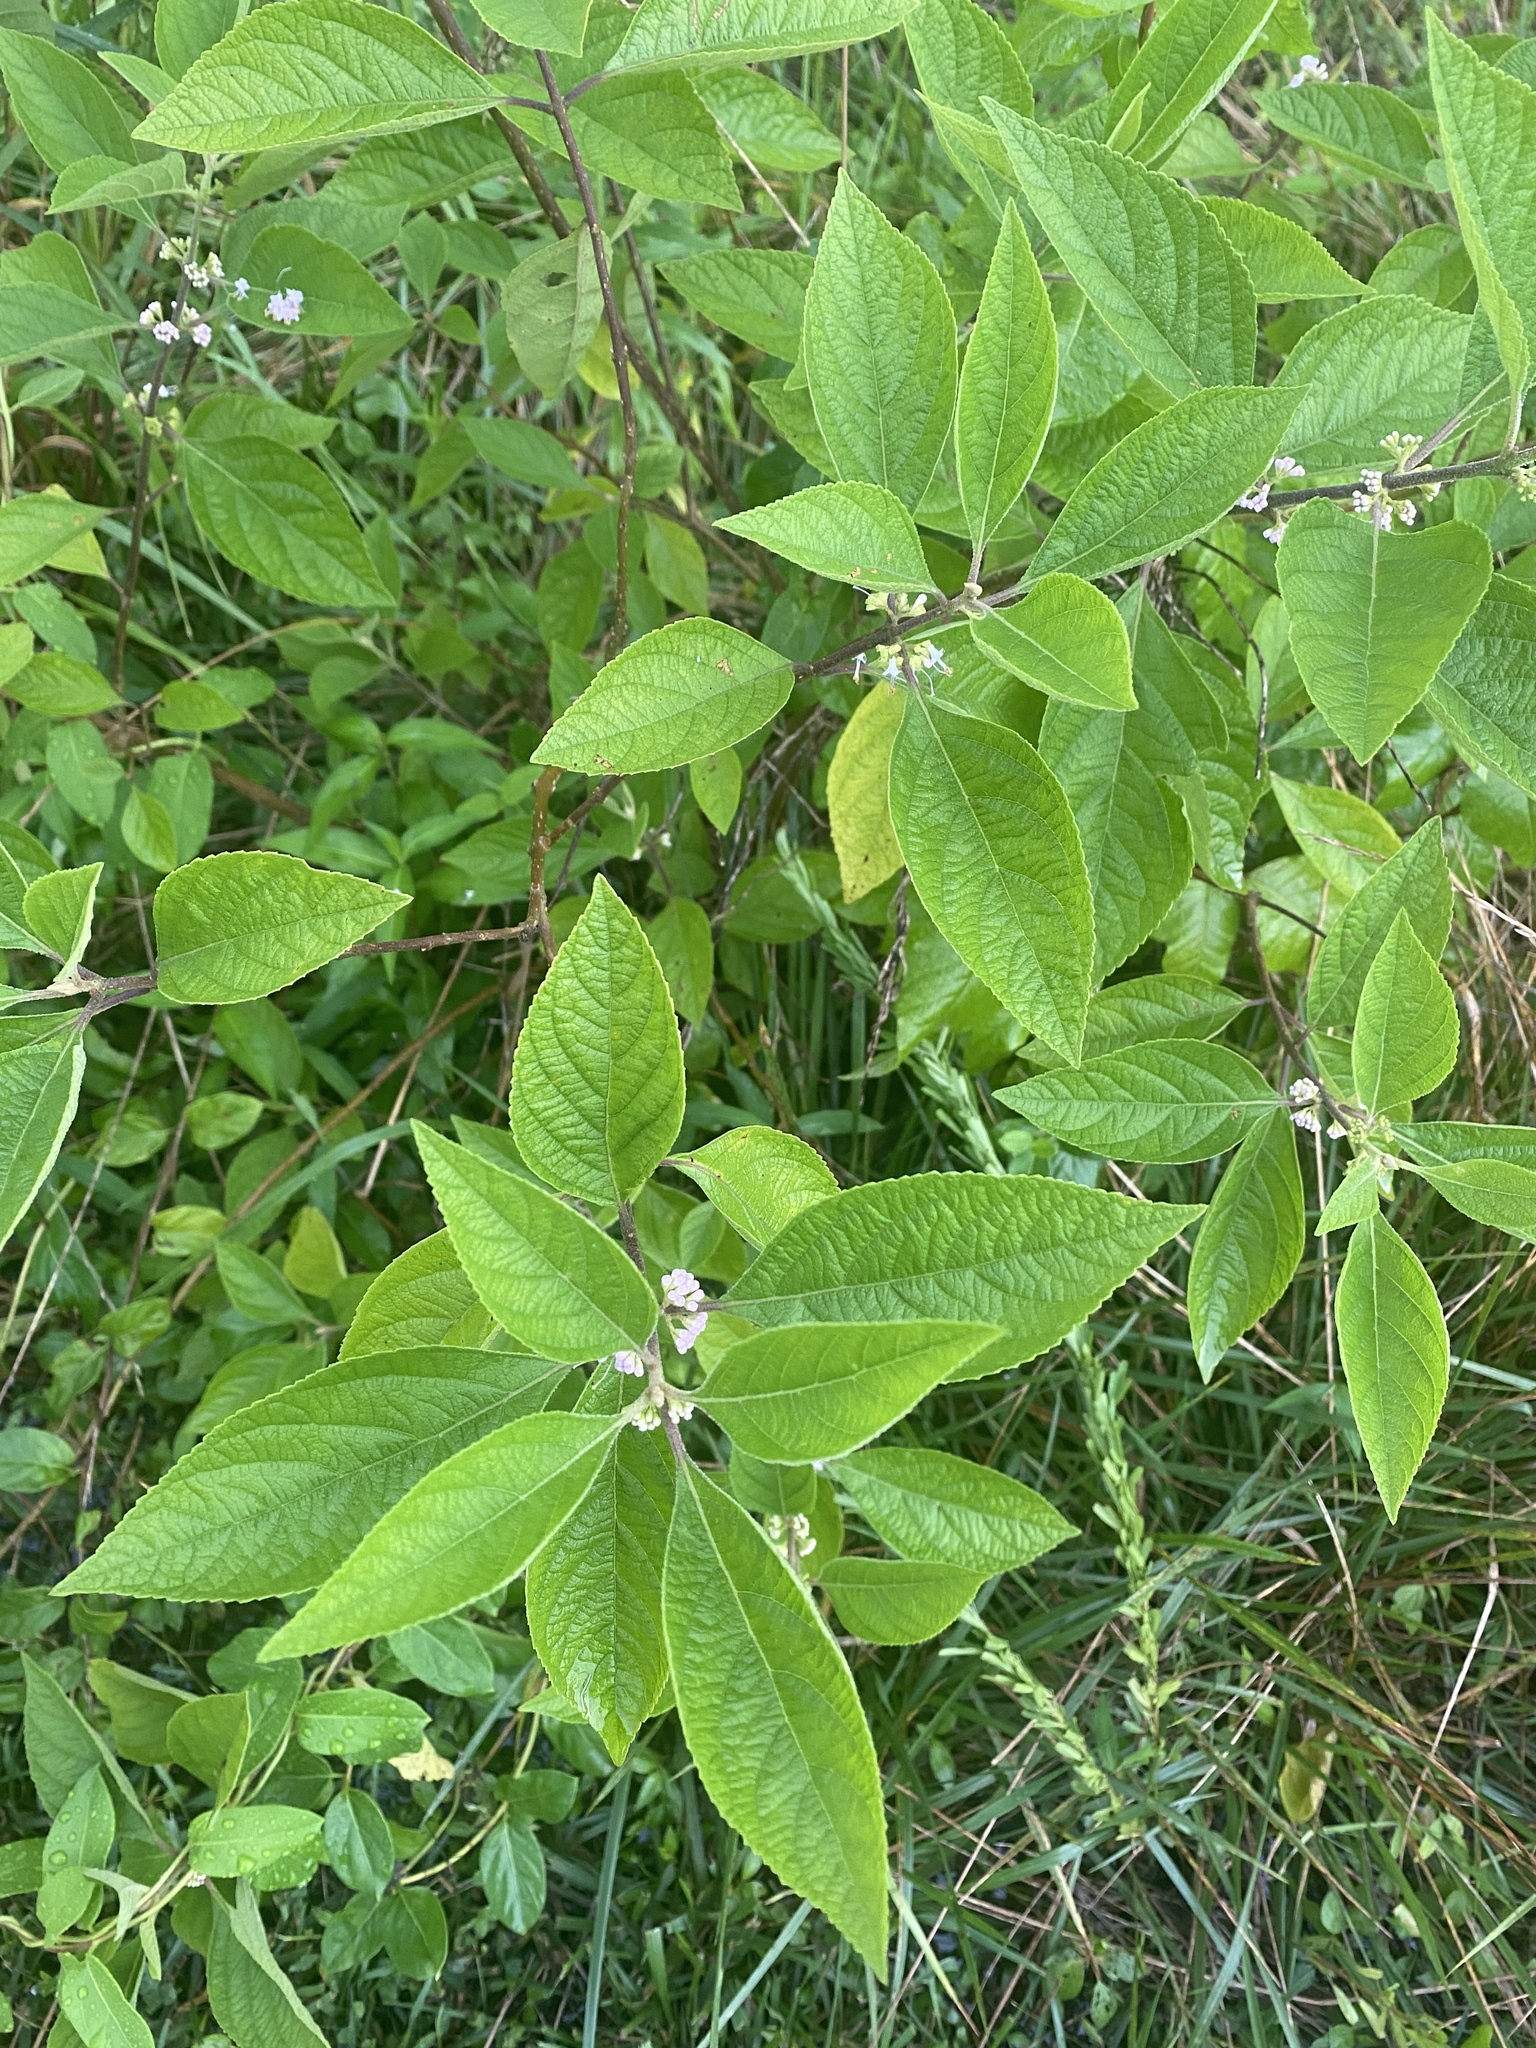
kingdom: Plantae
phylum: Tracheophyta
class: Magnoliopsida
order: Lamiales
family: Lamiaceae
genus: Callicarpa
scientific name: Callicarpa americana
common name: American beautyberry
